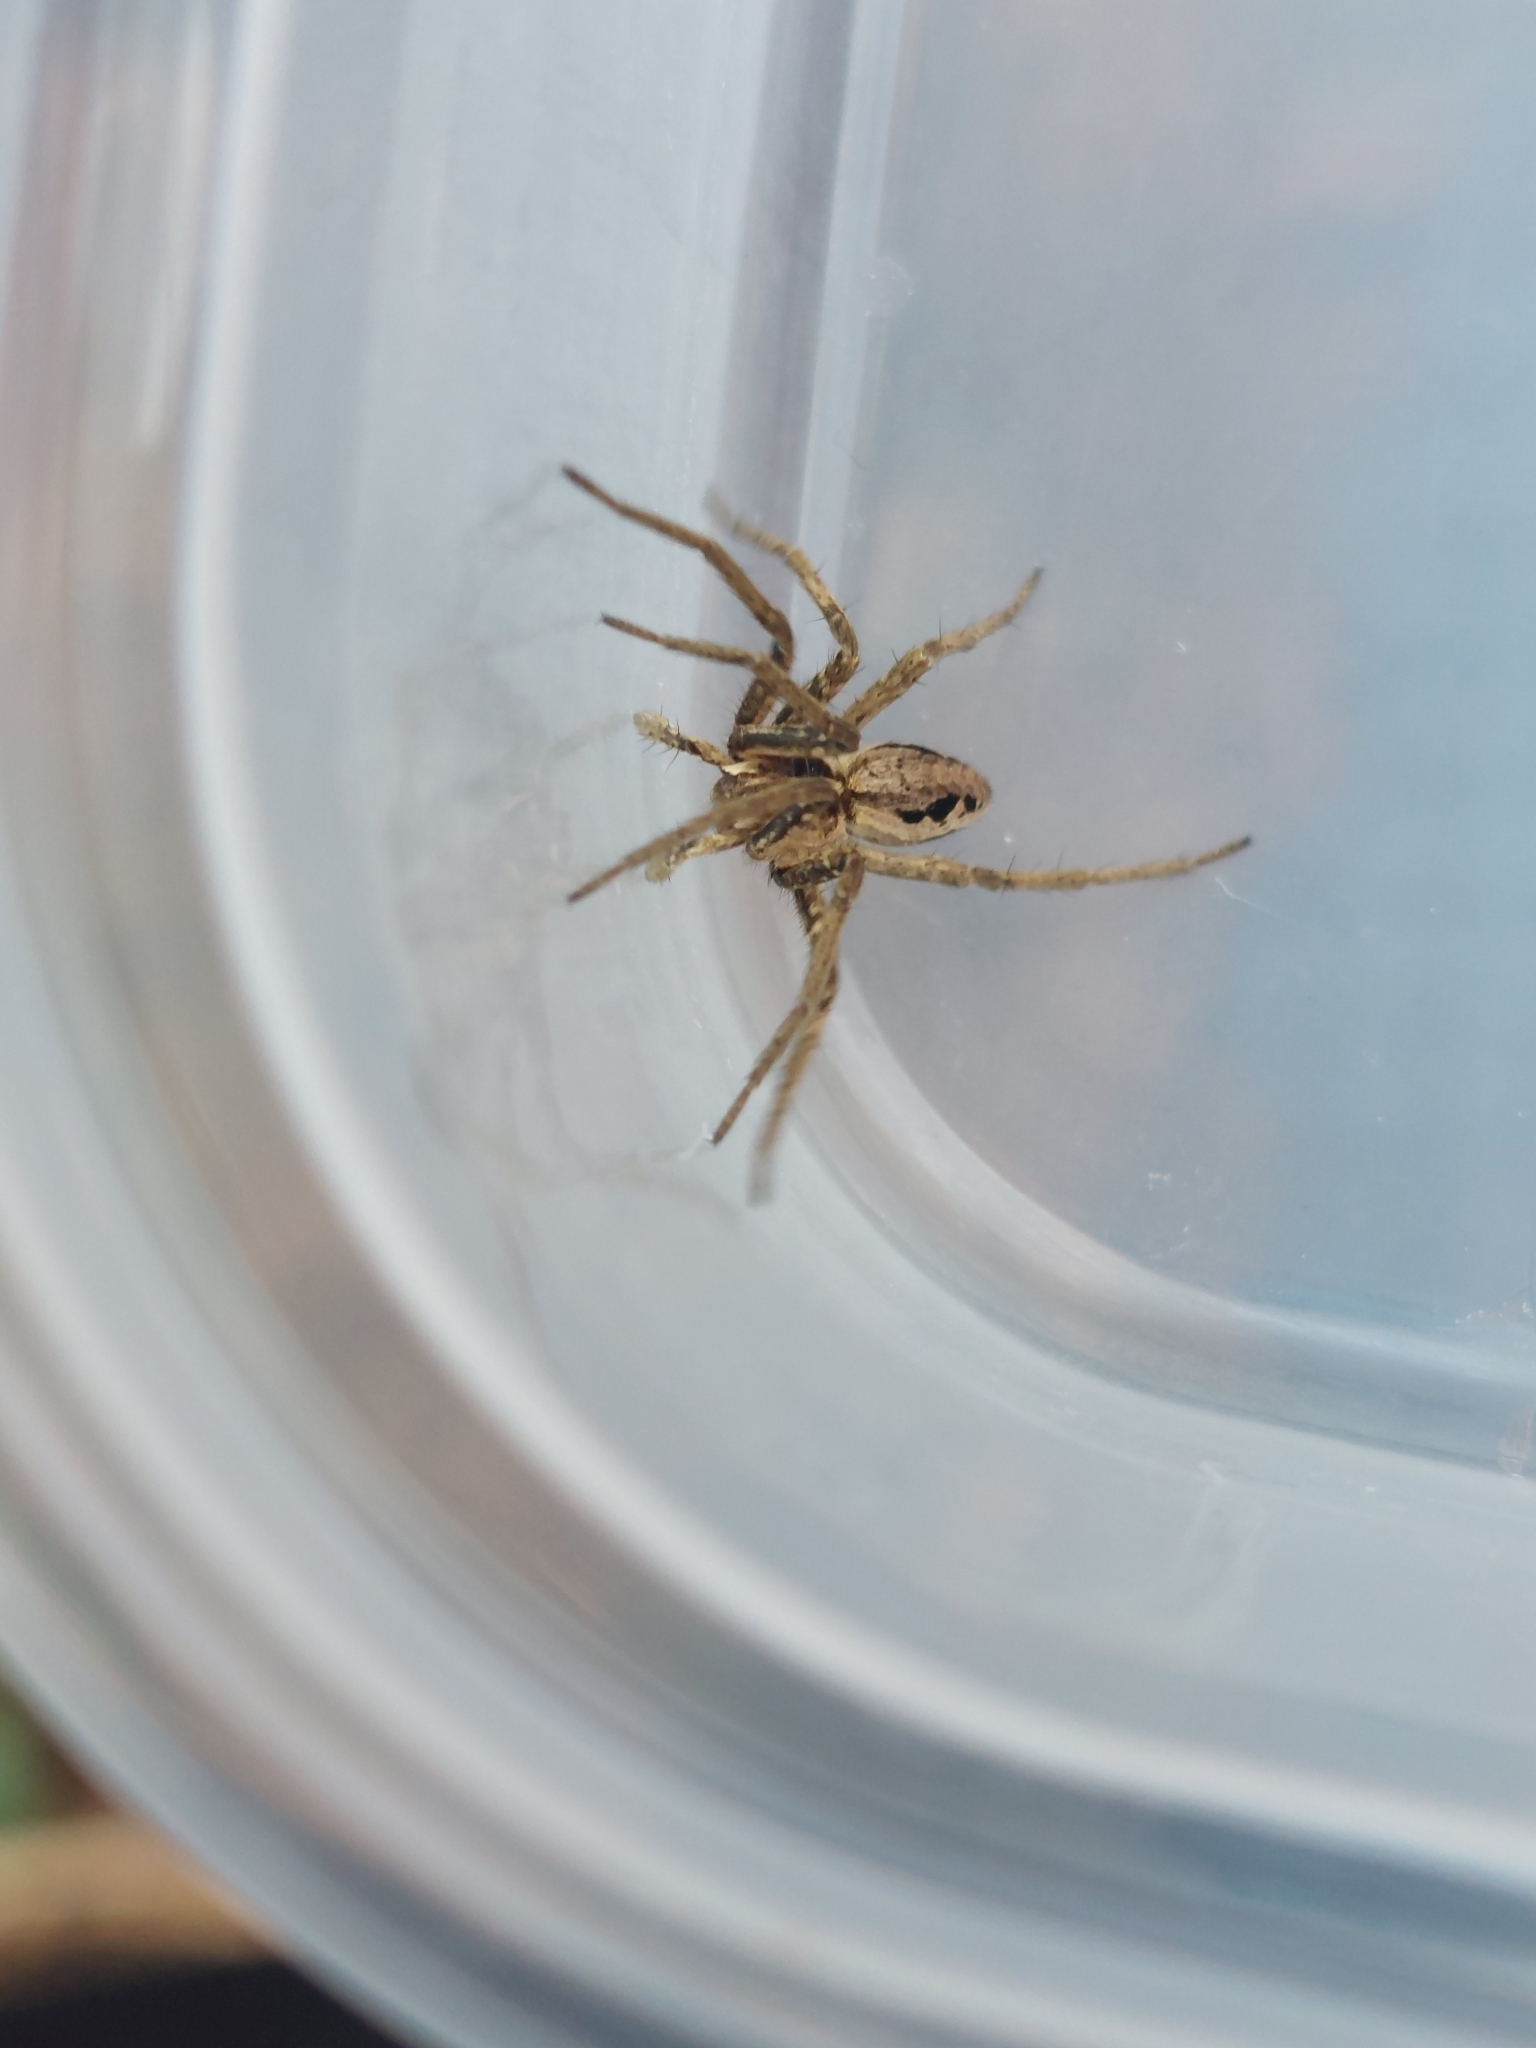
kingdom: Animalia
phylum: Arthropoda
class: Arachnida
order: Araneae
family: Pisauridae
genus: Pisaura
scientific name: Pisaura mirabilis
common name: Tent spider
